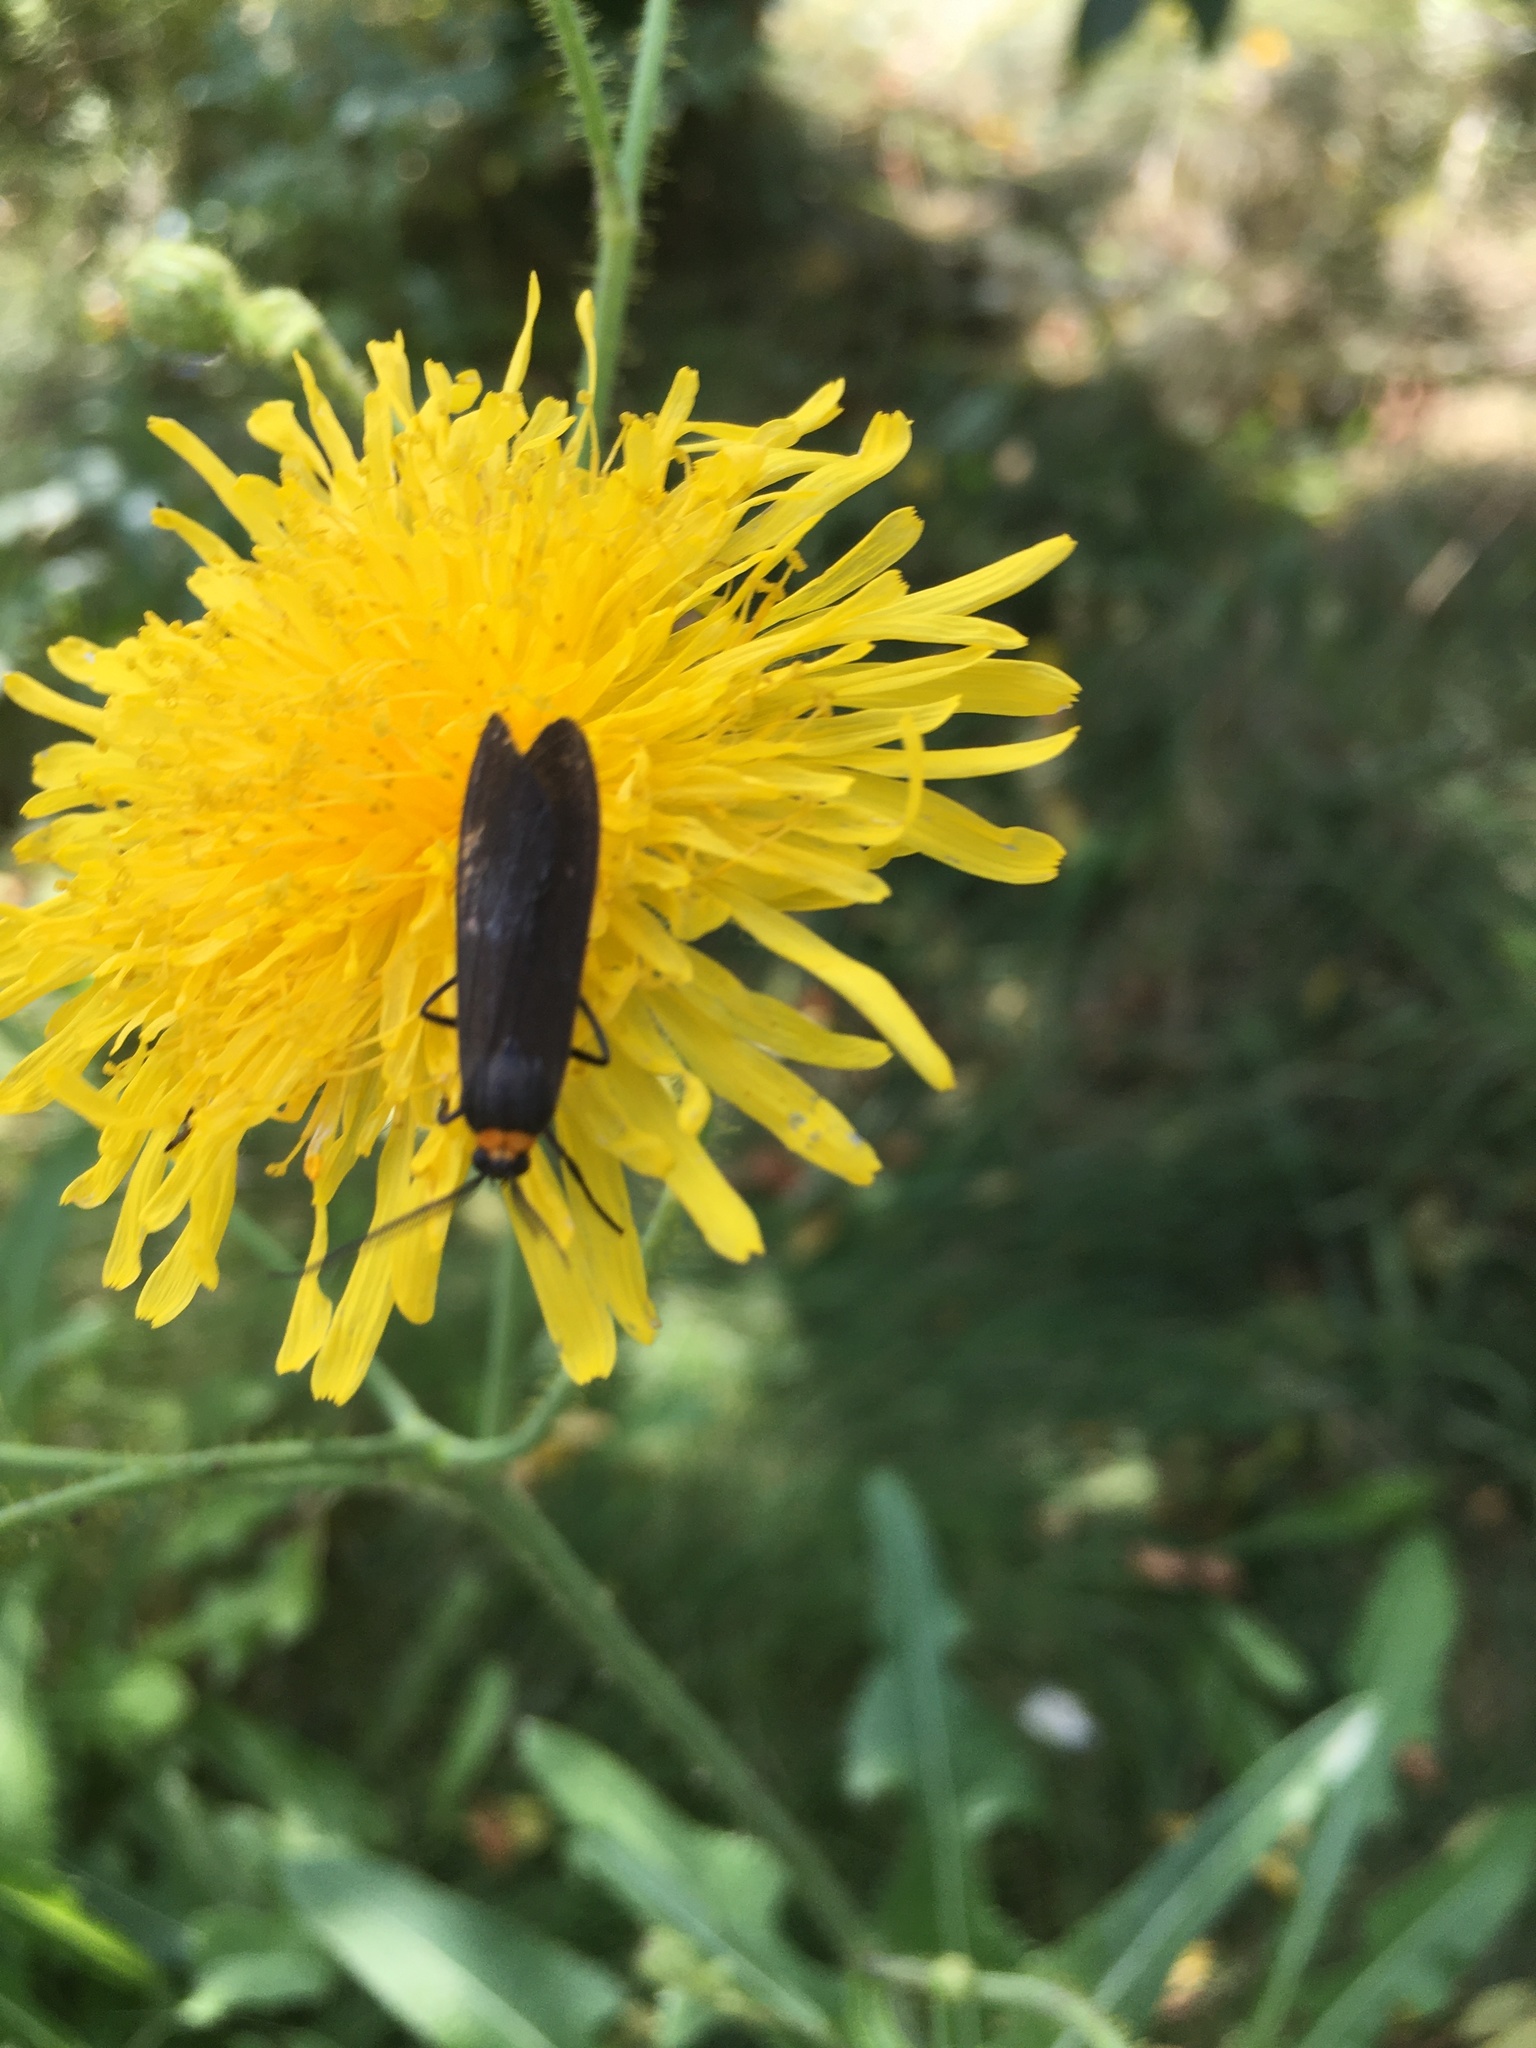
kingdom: Animalia
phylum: Arthropoda
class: Insecta
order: Lepidoptera
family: Erebidae
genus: Cisseps
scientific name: Cisseps fulvicollis
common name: Yellow-collared scape moth
